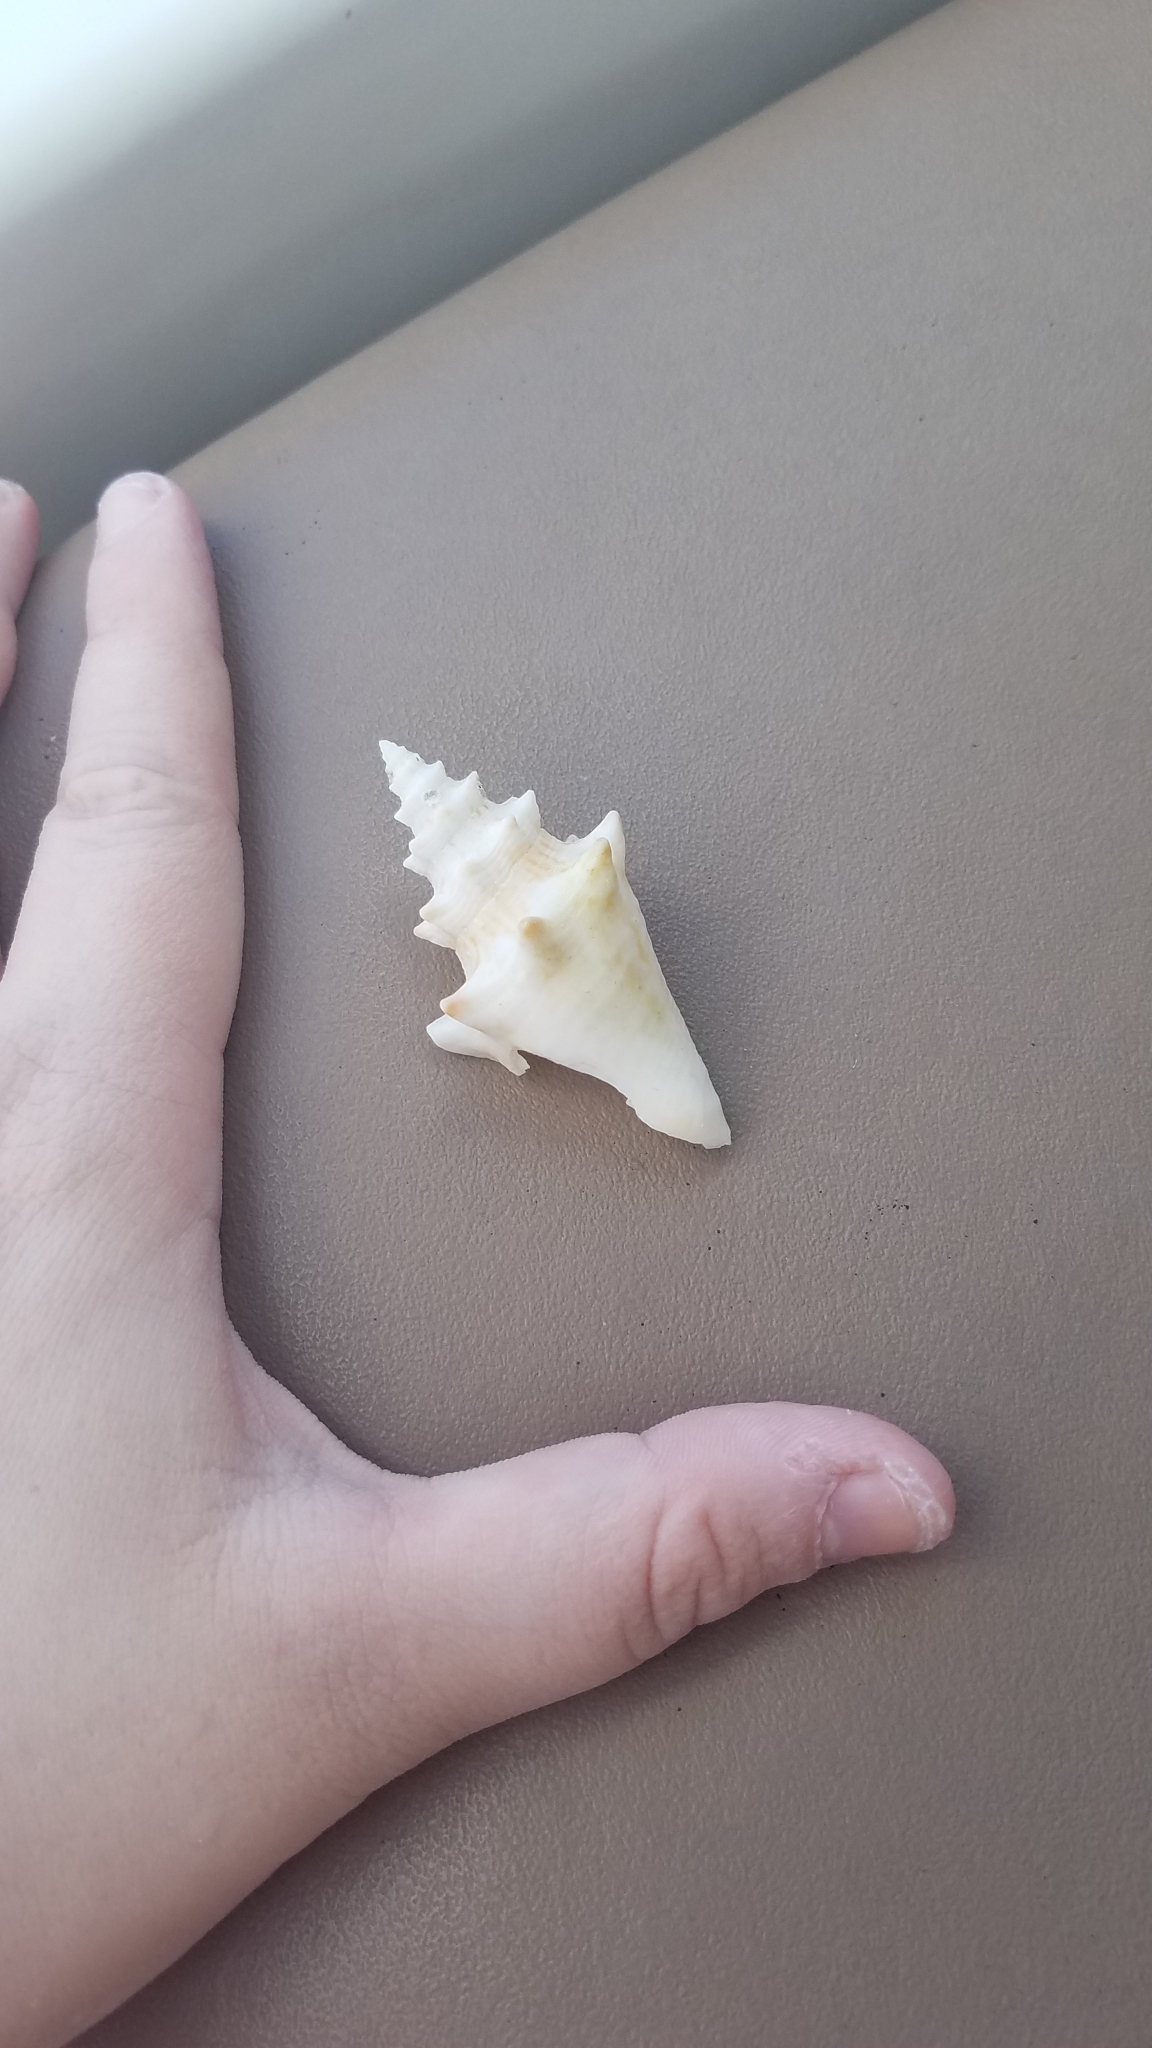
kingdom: Animalia
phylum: Mollusca
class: Gastropoda
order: Littorinimorpha
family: Strombidae
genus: Aliger
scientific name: Aliger gigas
